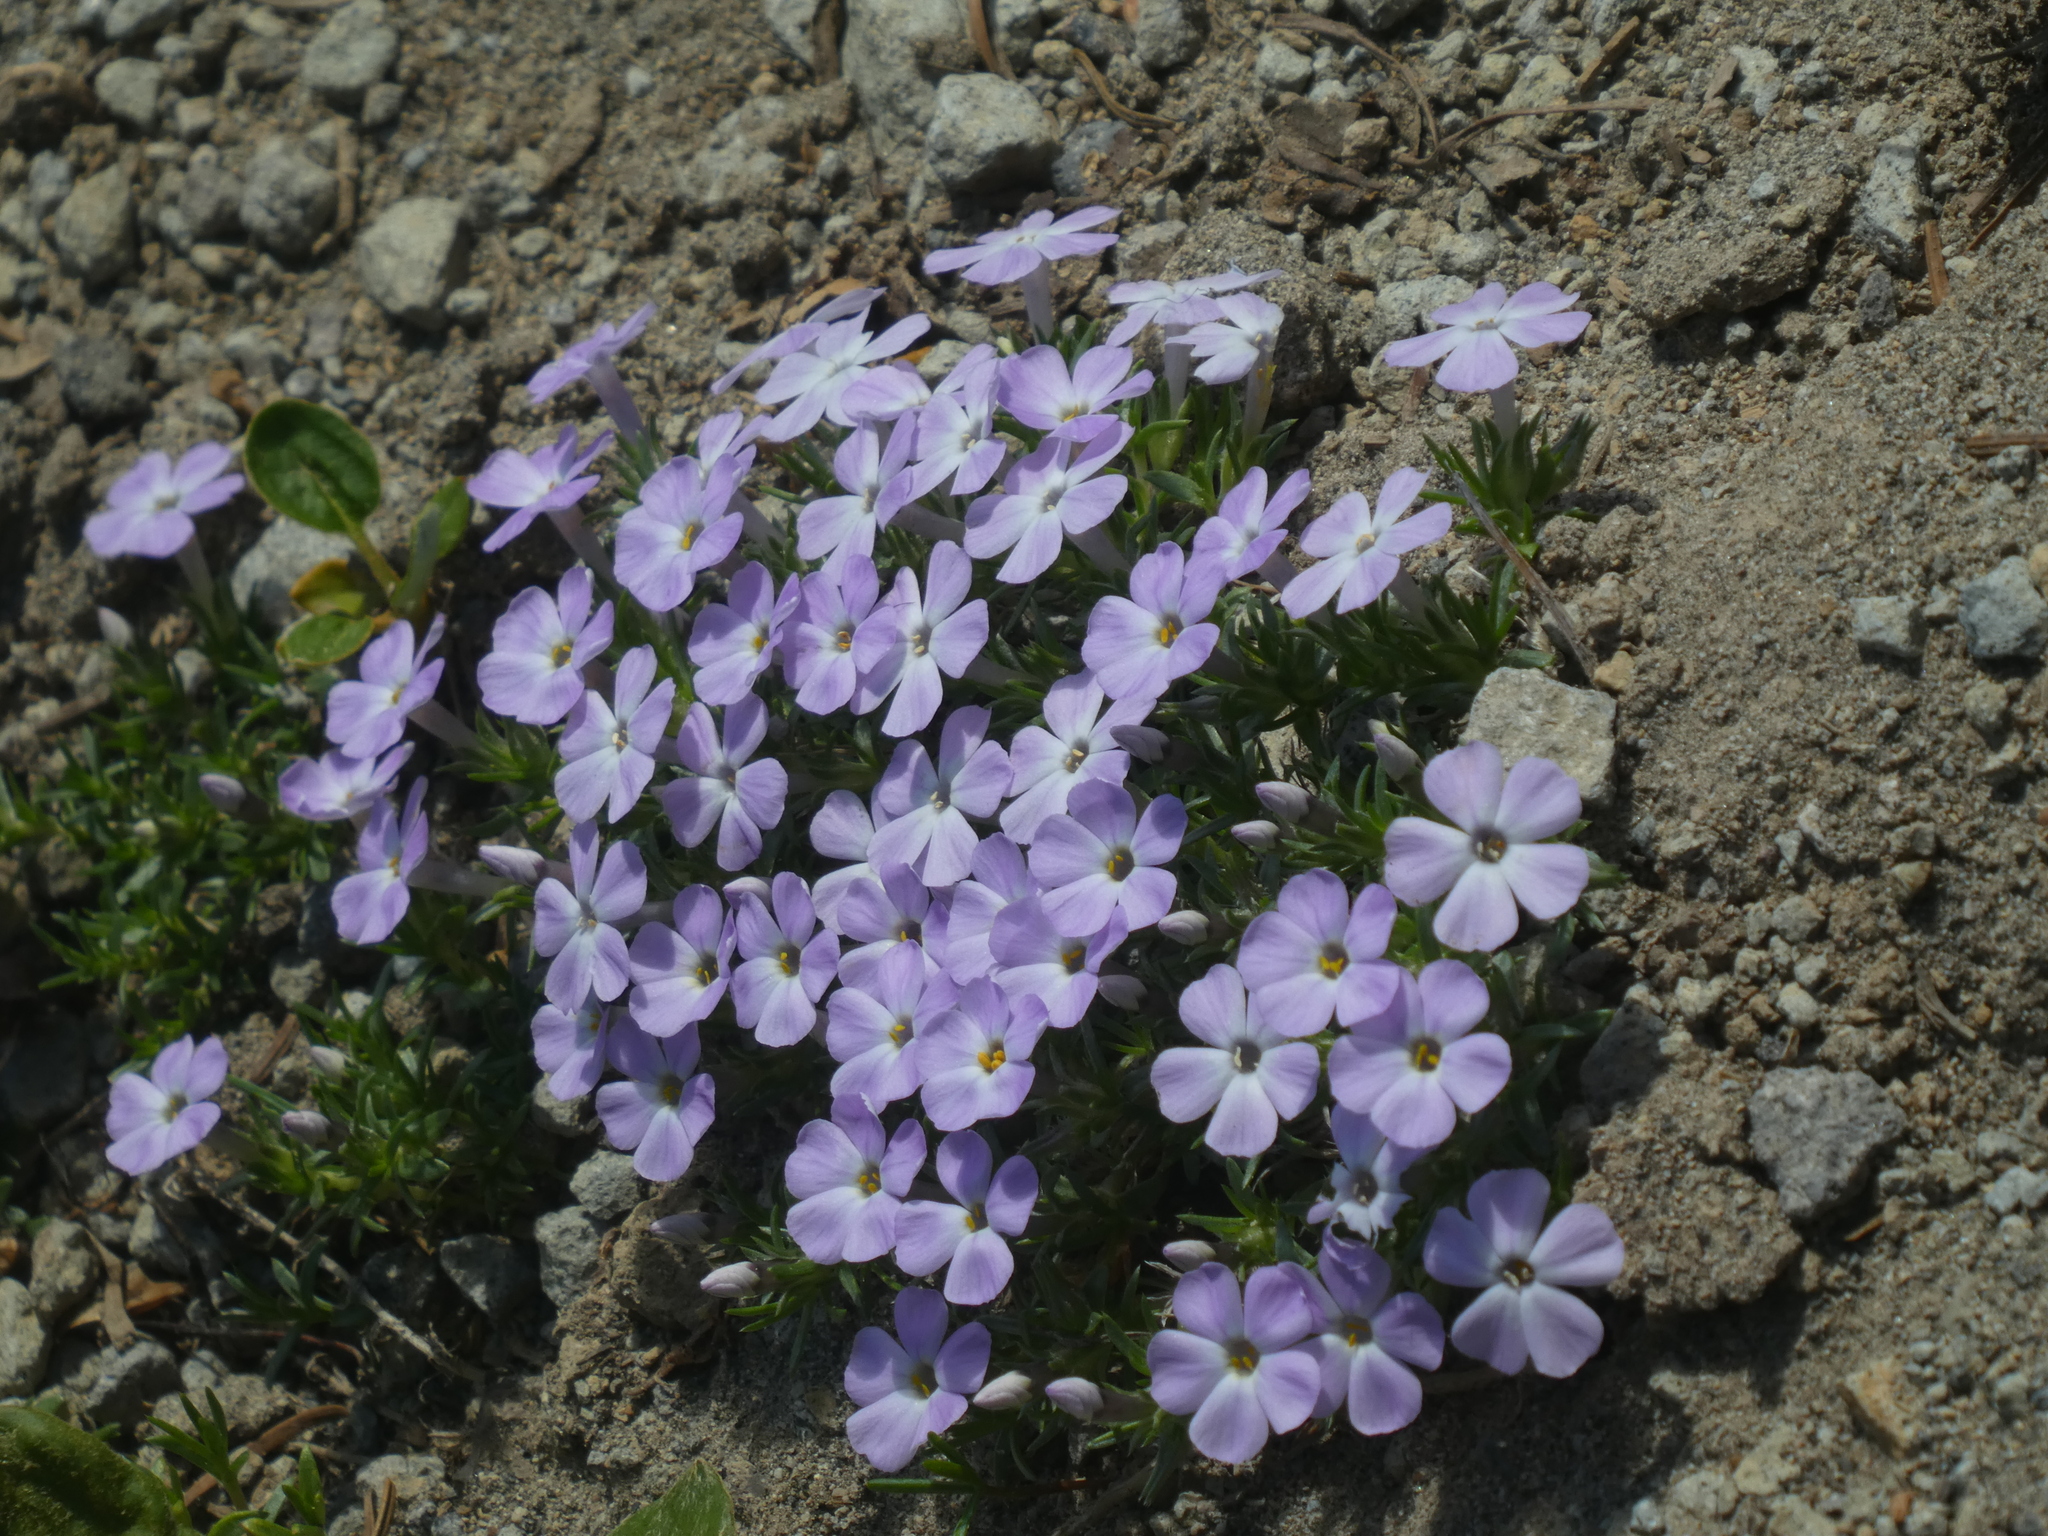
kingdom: Plantae
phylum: Tracheophyta
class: Magnoliopsida
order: Ericales
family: Polemoniaceae
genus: Phlox
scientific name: Phlox diffusa
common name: Mat phlox
